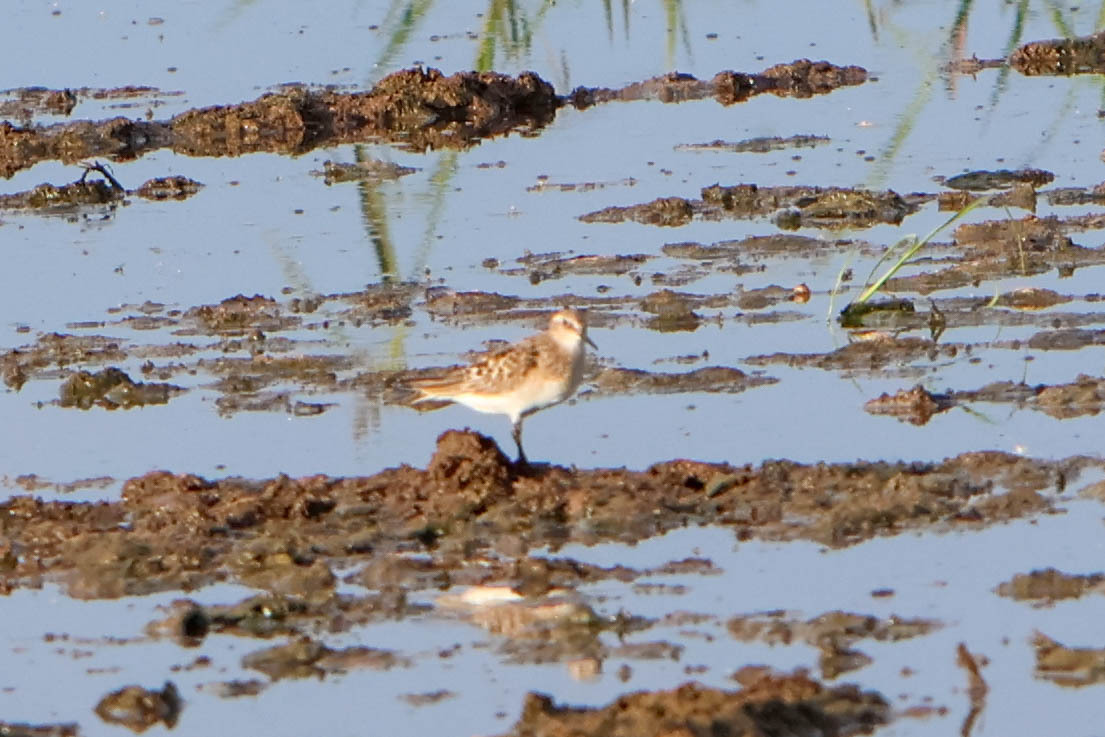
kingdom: Animalia
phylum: Chordata
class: Aves
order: Charadriiformes
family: Scolopacidae
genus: Calidris
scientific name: Calidris bairdii
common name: Baird's sandpiper
